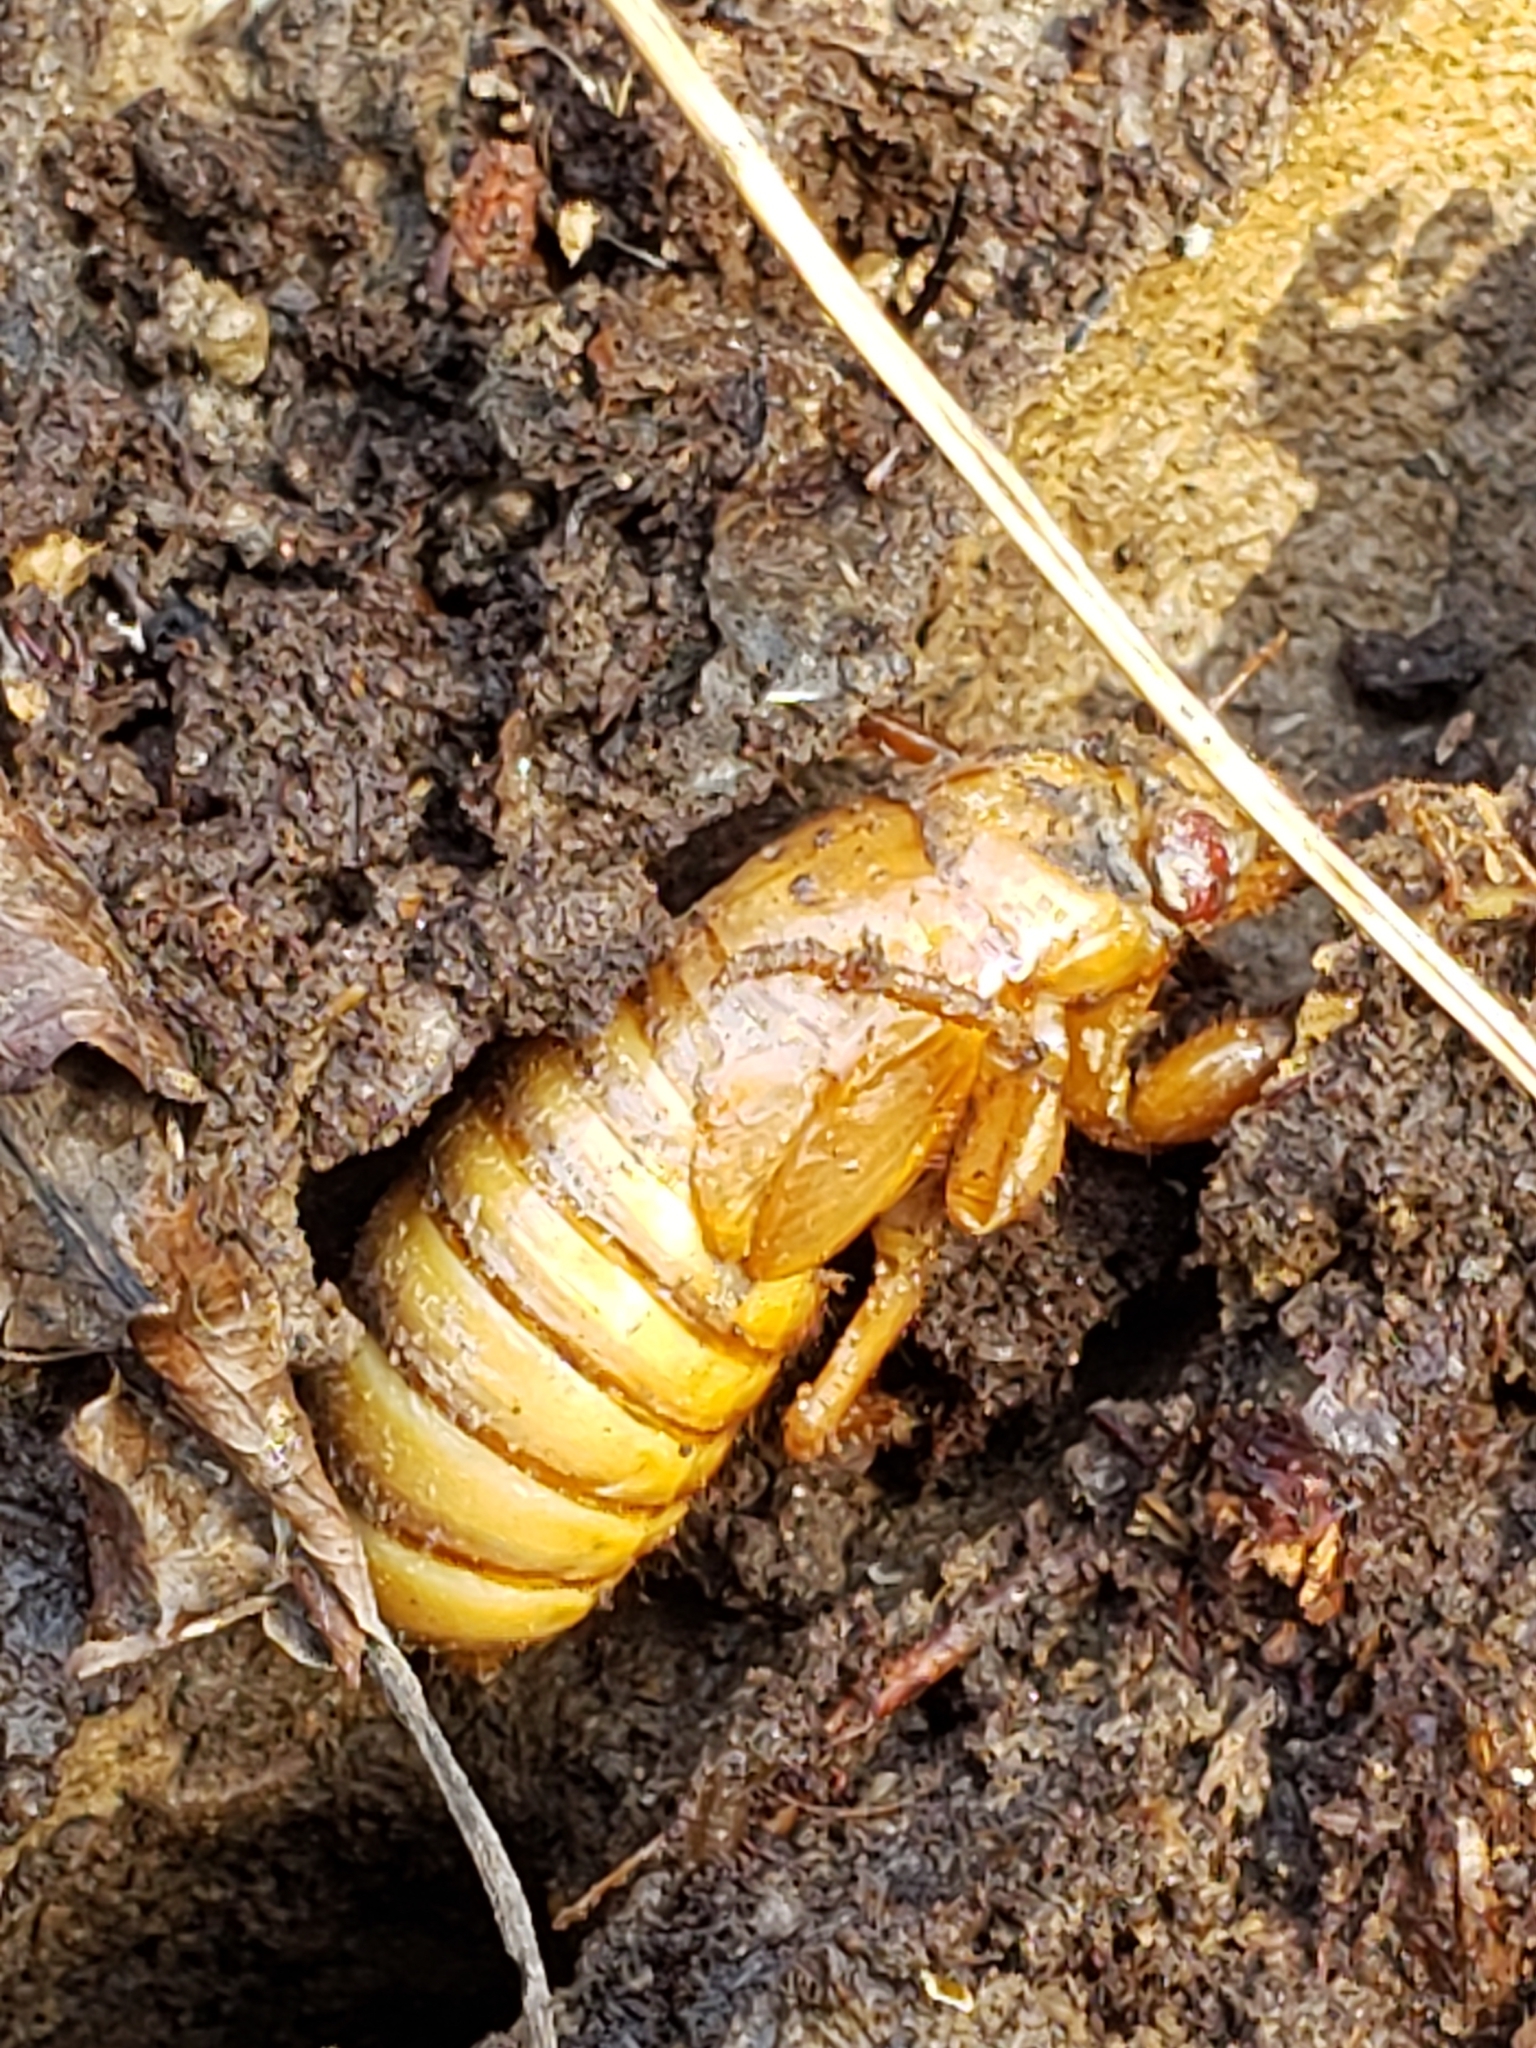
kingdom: Animalia
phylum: Arthropoda
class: Insecta
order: Hemiptera
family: Cicadidae
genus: Magicicada
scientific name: Magicicada
